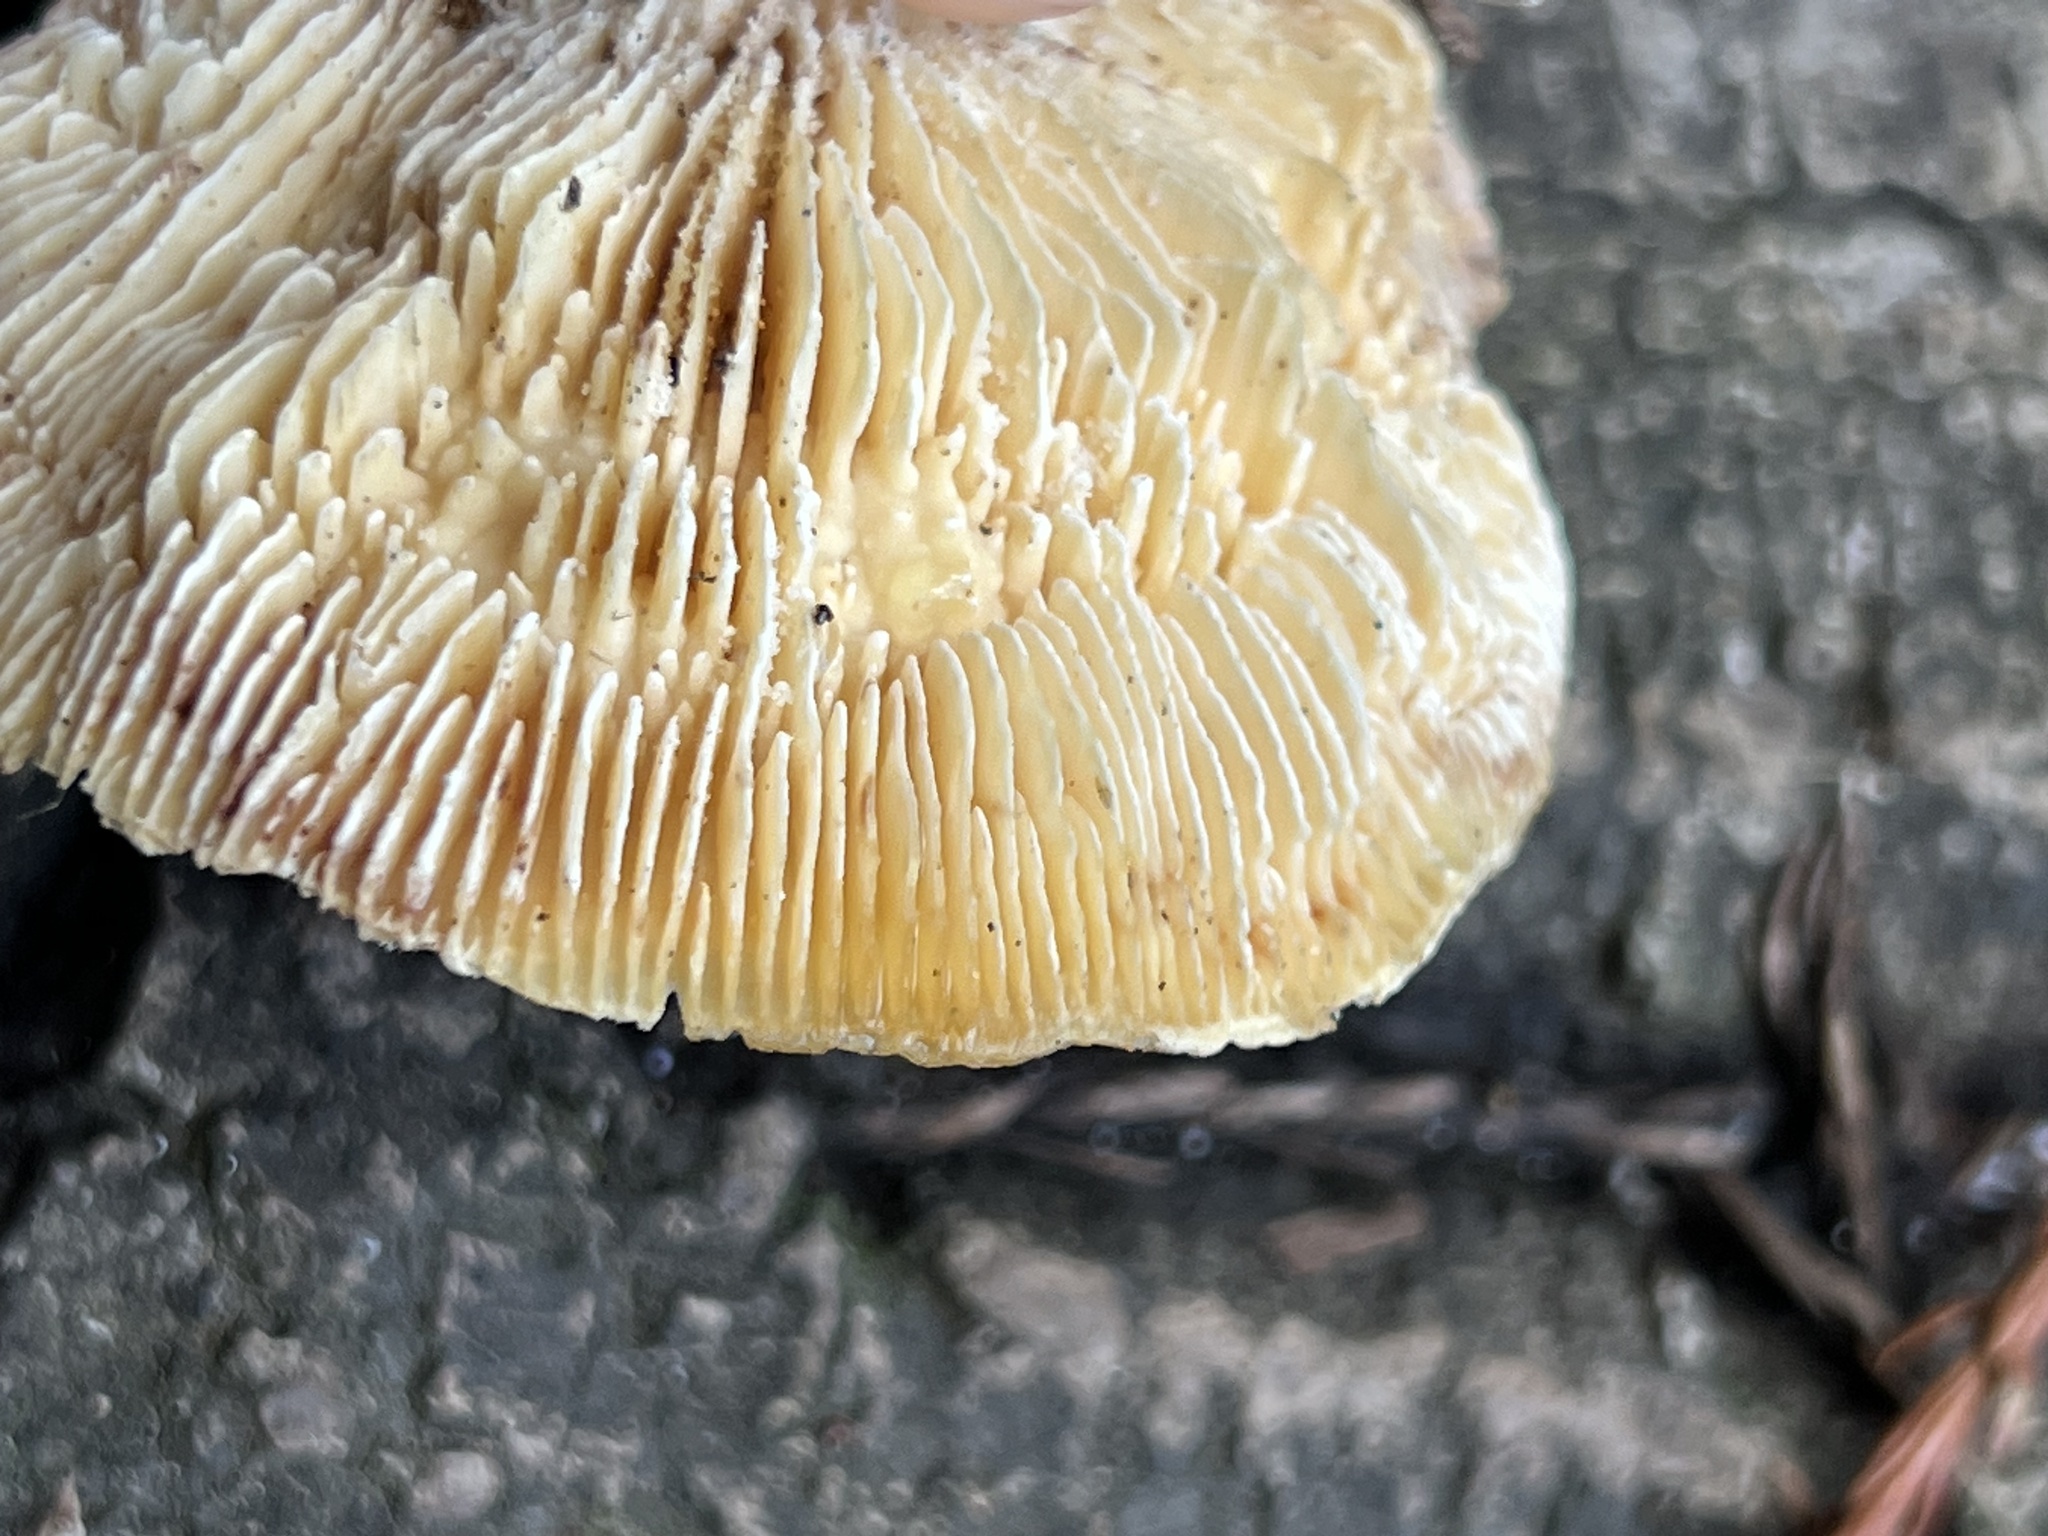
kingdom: Fungi
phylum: Basidiomycota
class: Agaricomycetes
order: Polyporales
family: Polyporaceae
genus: Lenzites
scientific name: Lenzites betulinus
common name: Birch mazegill
